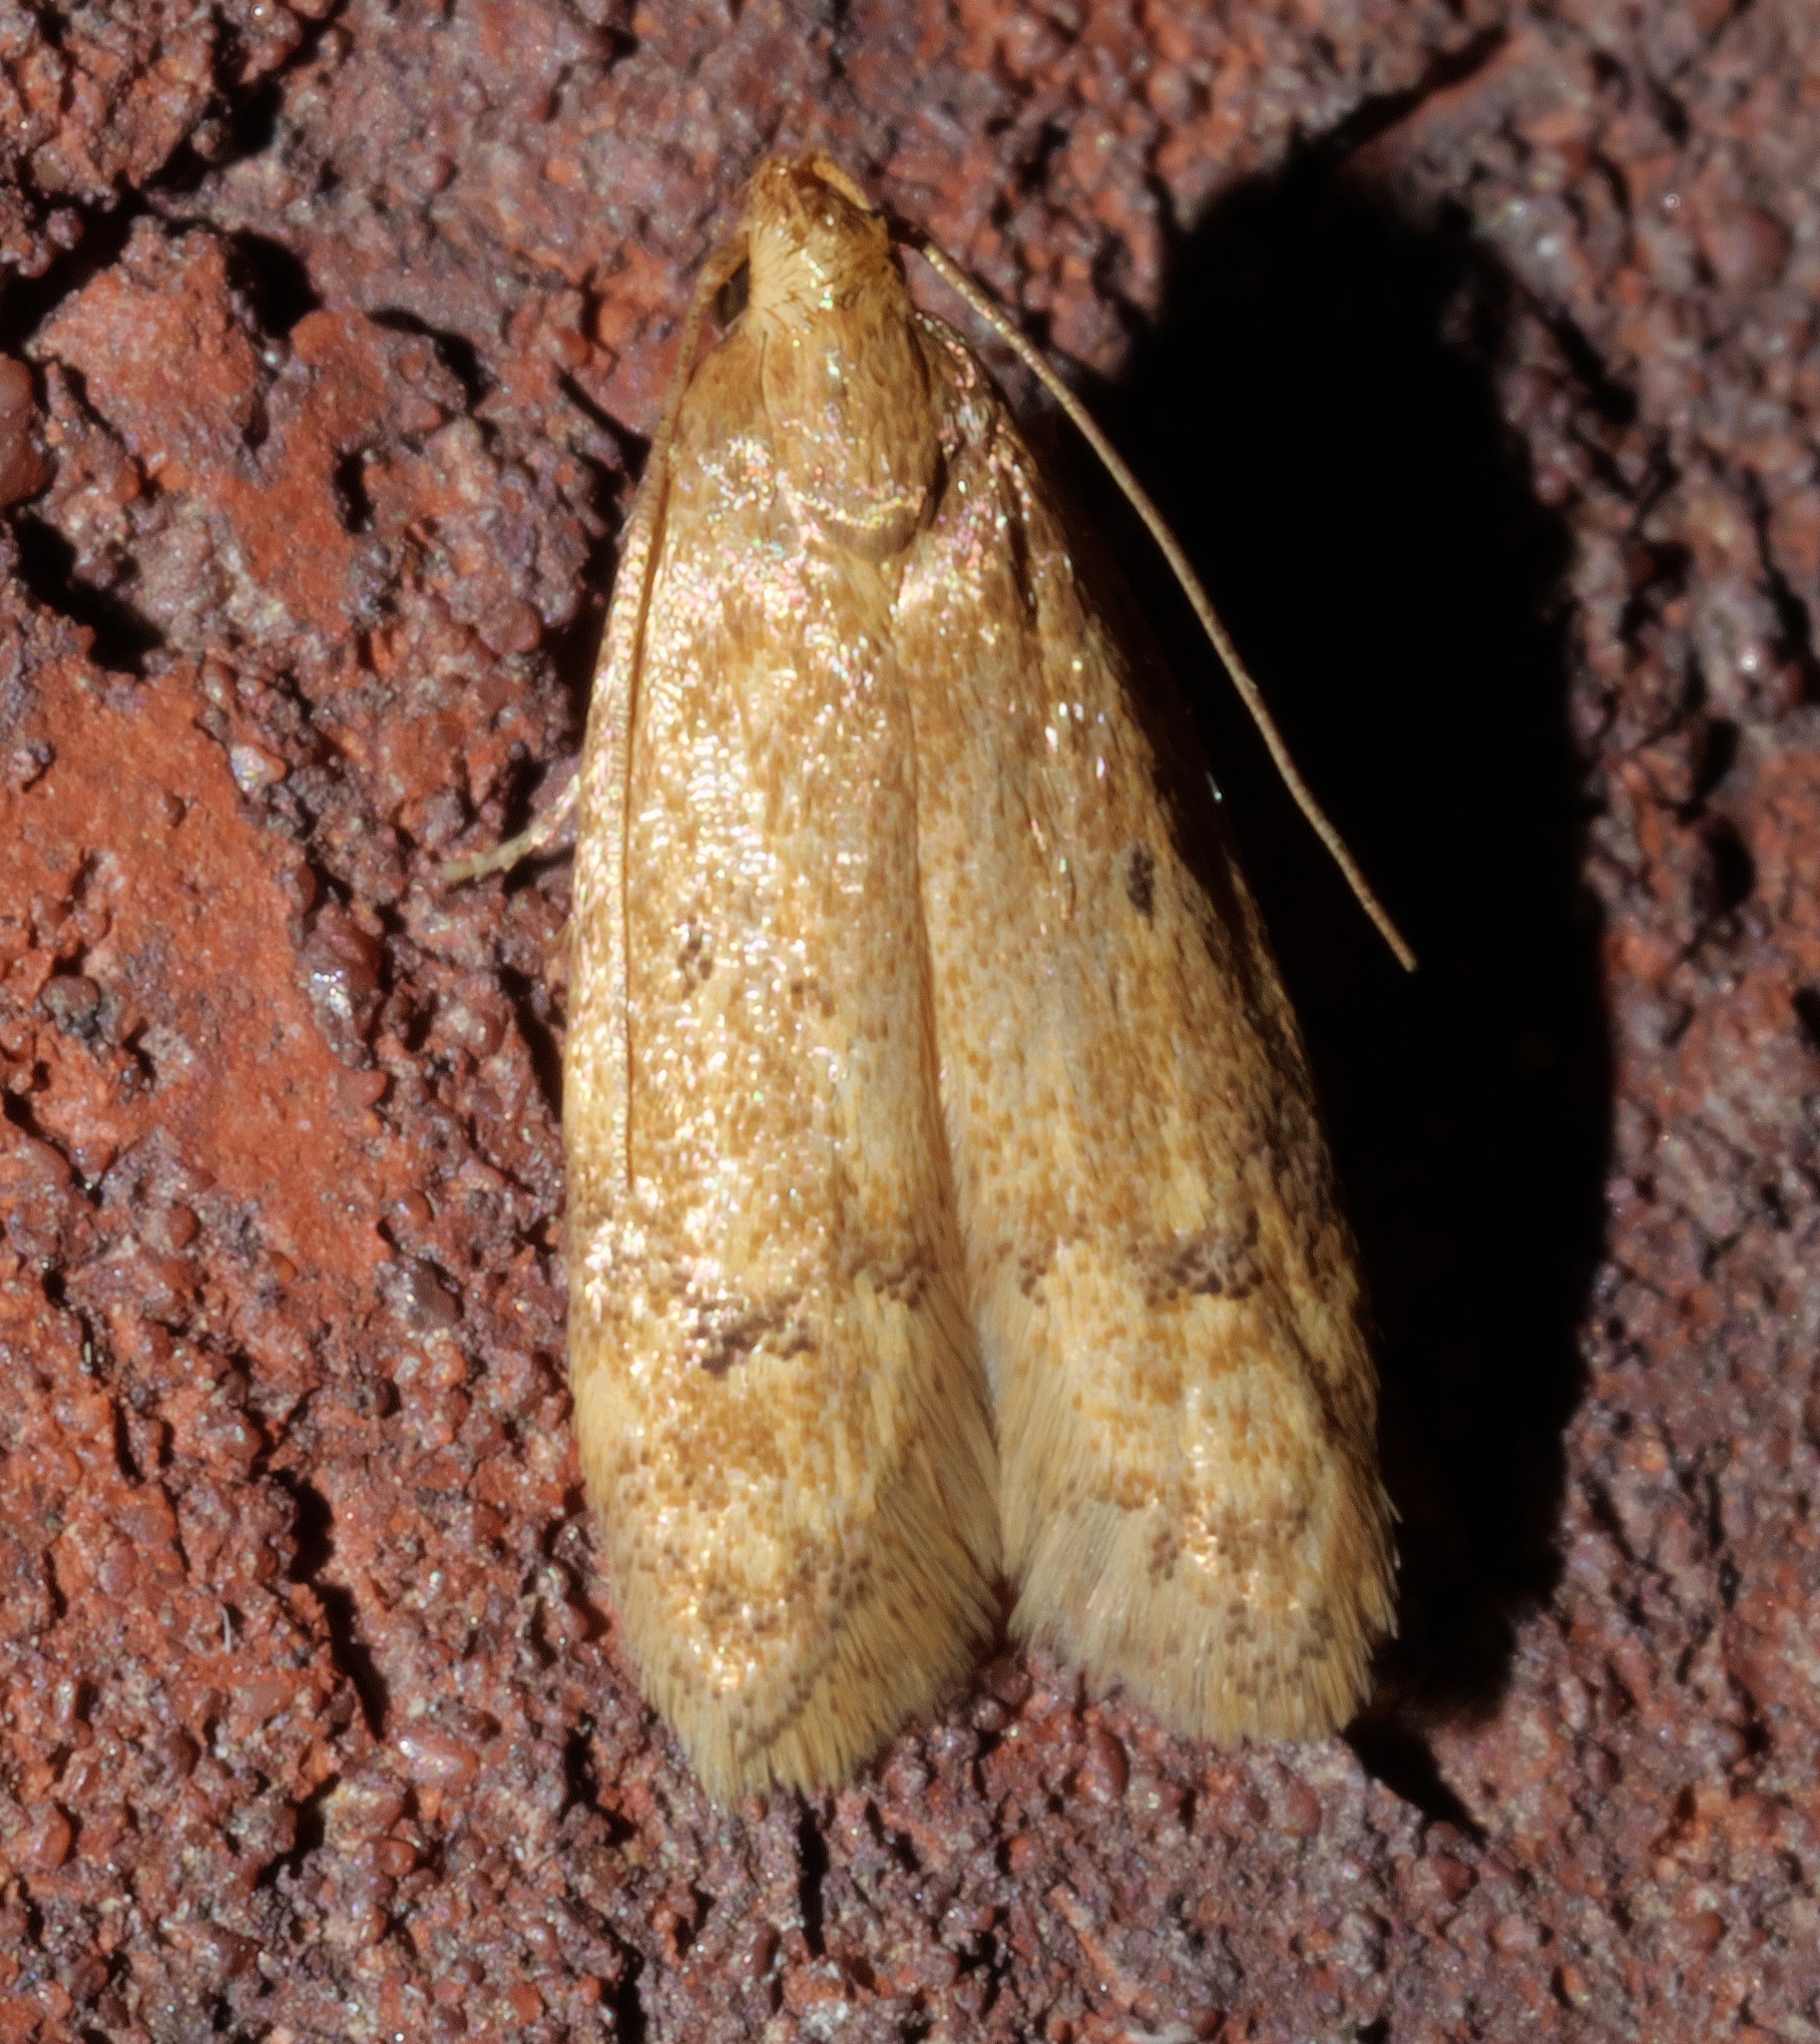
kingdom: Animalia
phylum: Arthropoda
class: Insecta
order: Lepidoptera
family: Autostichidae
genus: Gerdana
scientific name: Gerdana caritella
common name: Gerdana moth
